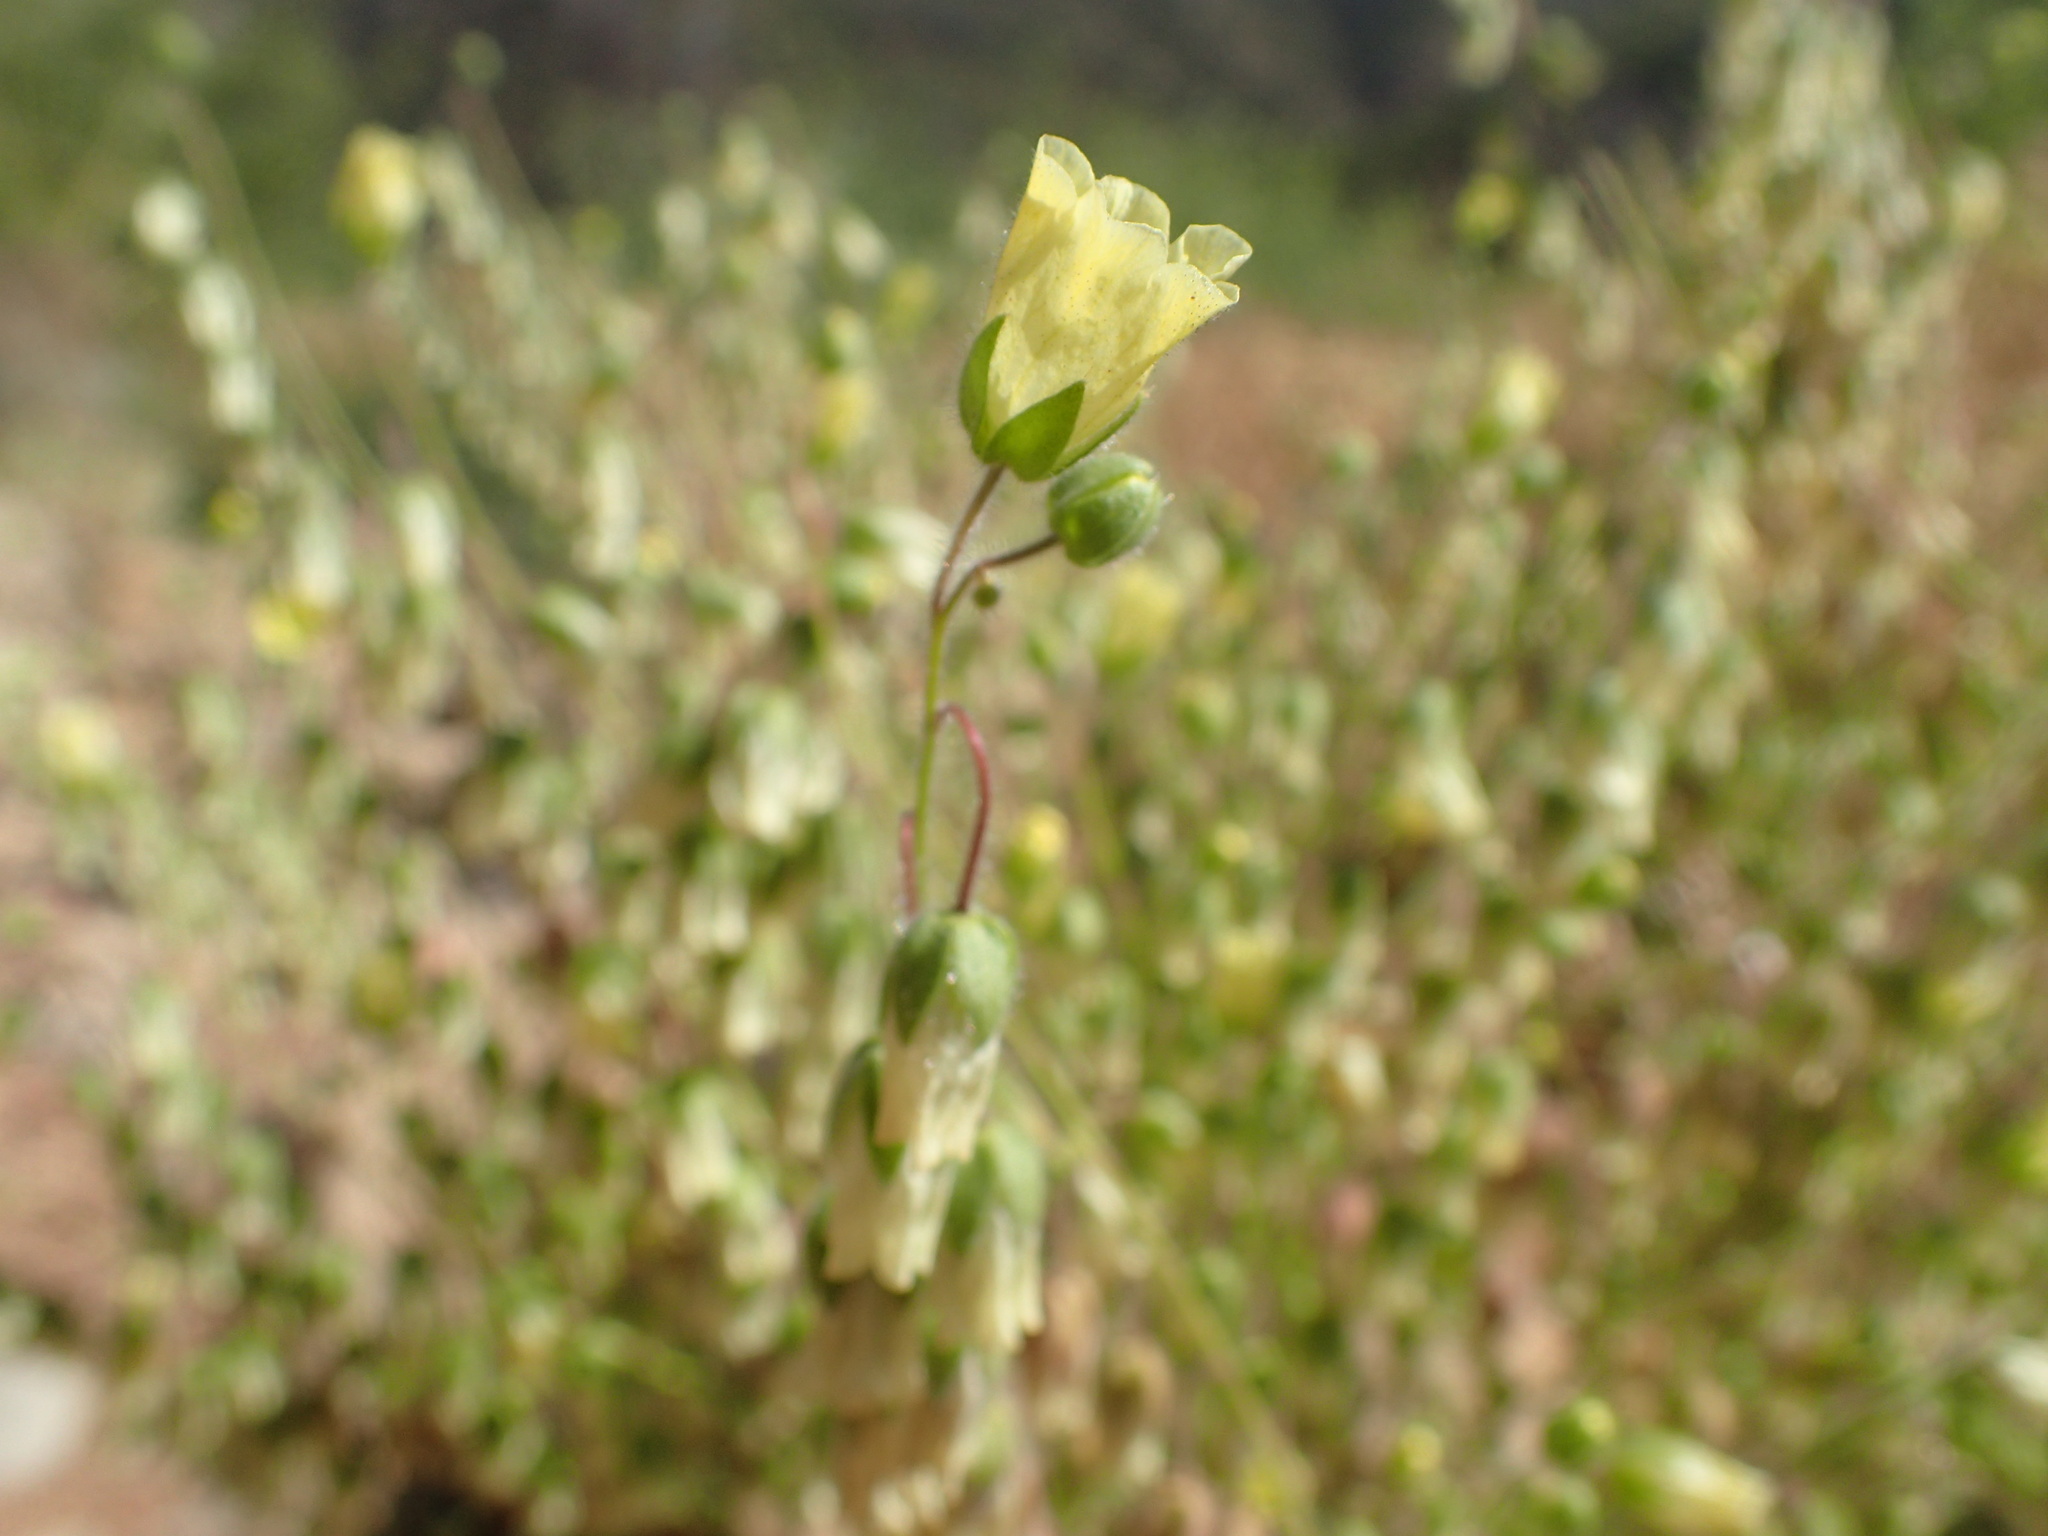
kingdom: Plantae
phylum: Tracheophyta
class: Magnoliopsida
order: Boraginales
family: Hydrophyllaceae
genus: Emmenanthe
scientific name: Emmenanthe penduliflora
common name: Whispering-bells
